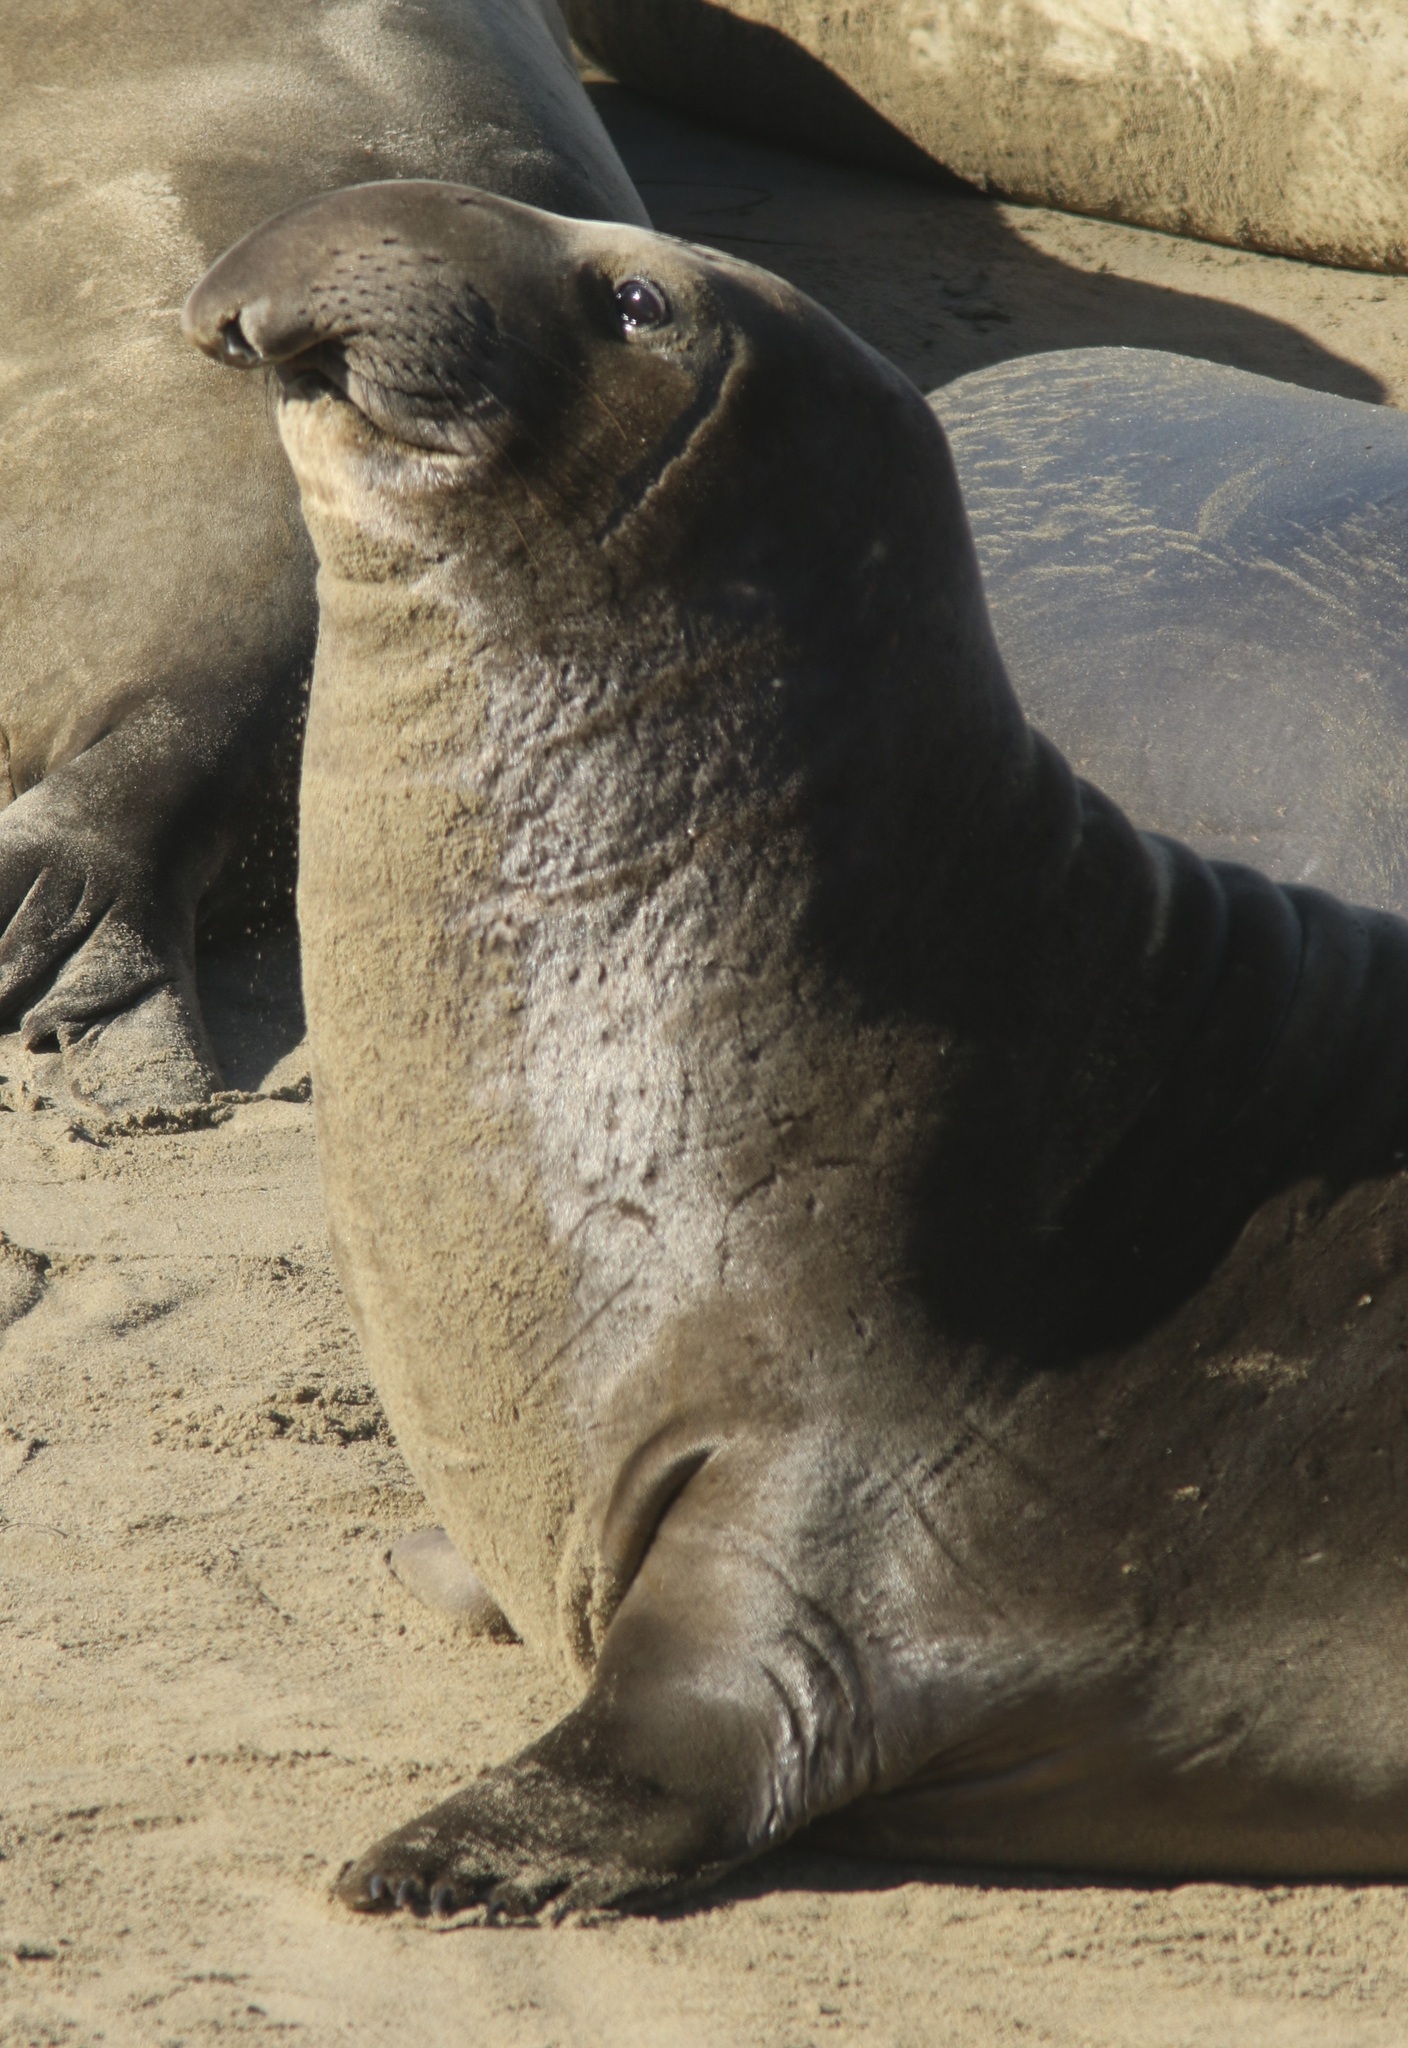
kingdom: Animalia
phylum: Chordata
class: Mammalia
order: Carnivora
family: Phocidae
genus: Mirounga
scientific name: Mirounga angustirostris
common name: Northern elephant seal
